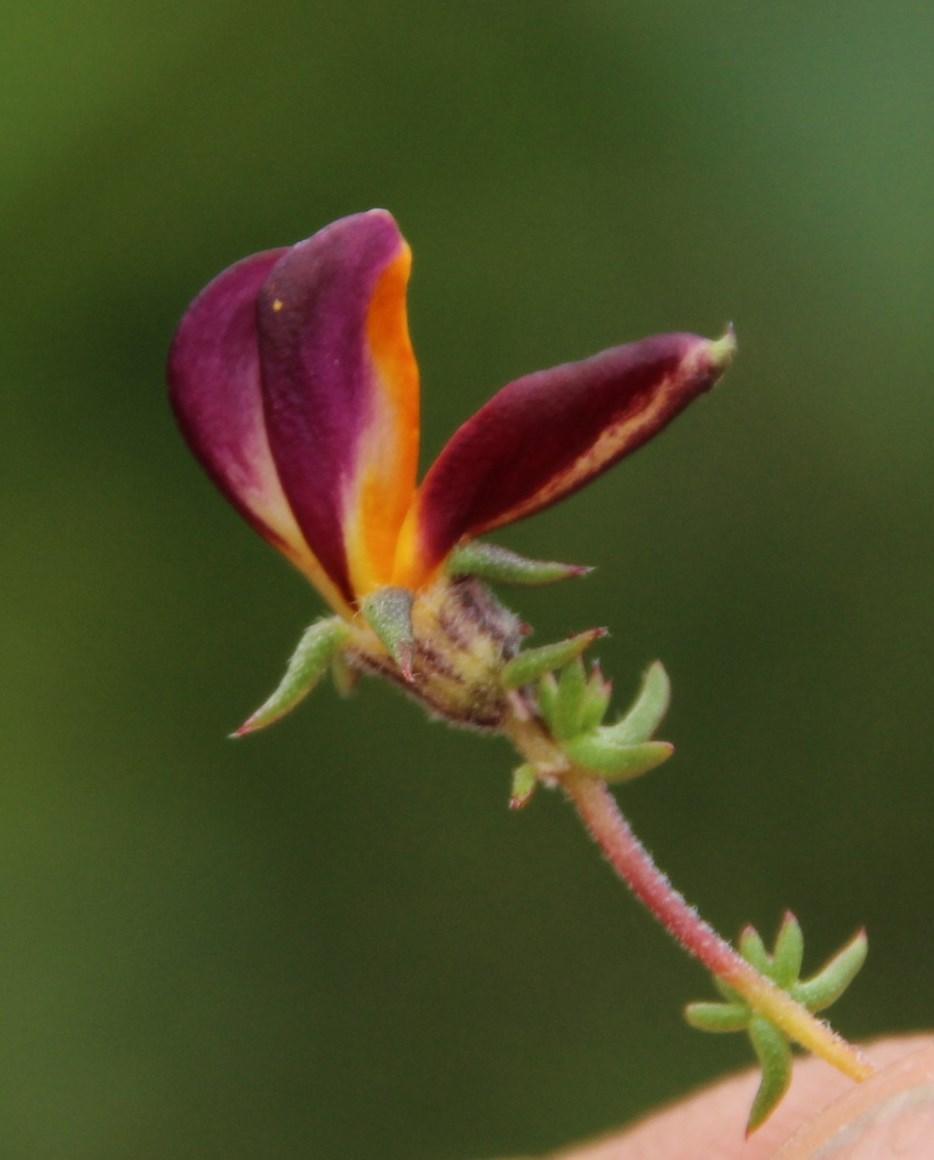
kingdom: Plantae
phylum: Tracheophyta
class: Magnoliopsida
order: Fabales
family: Fabaceae
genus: Aspalathus
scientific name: Aspalathus retroflexa
